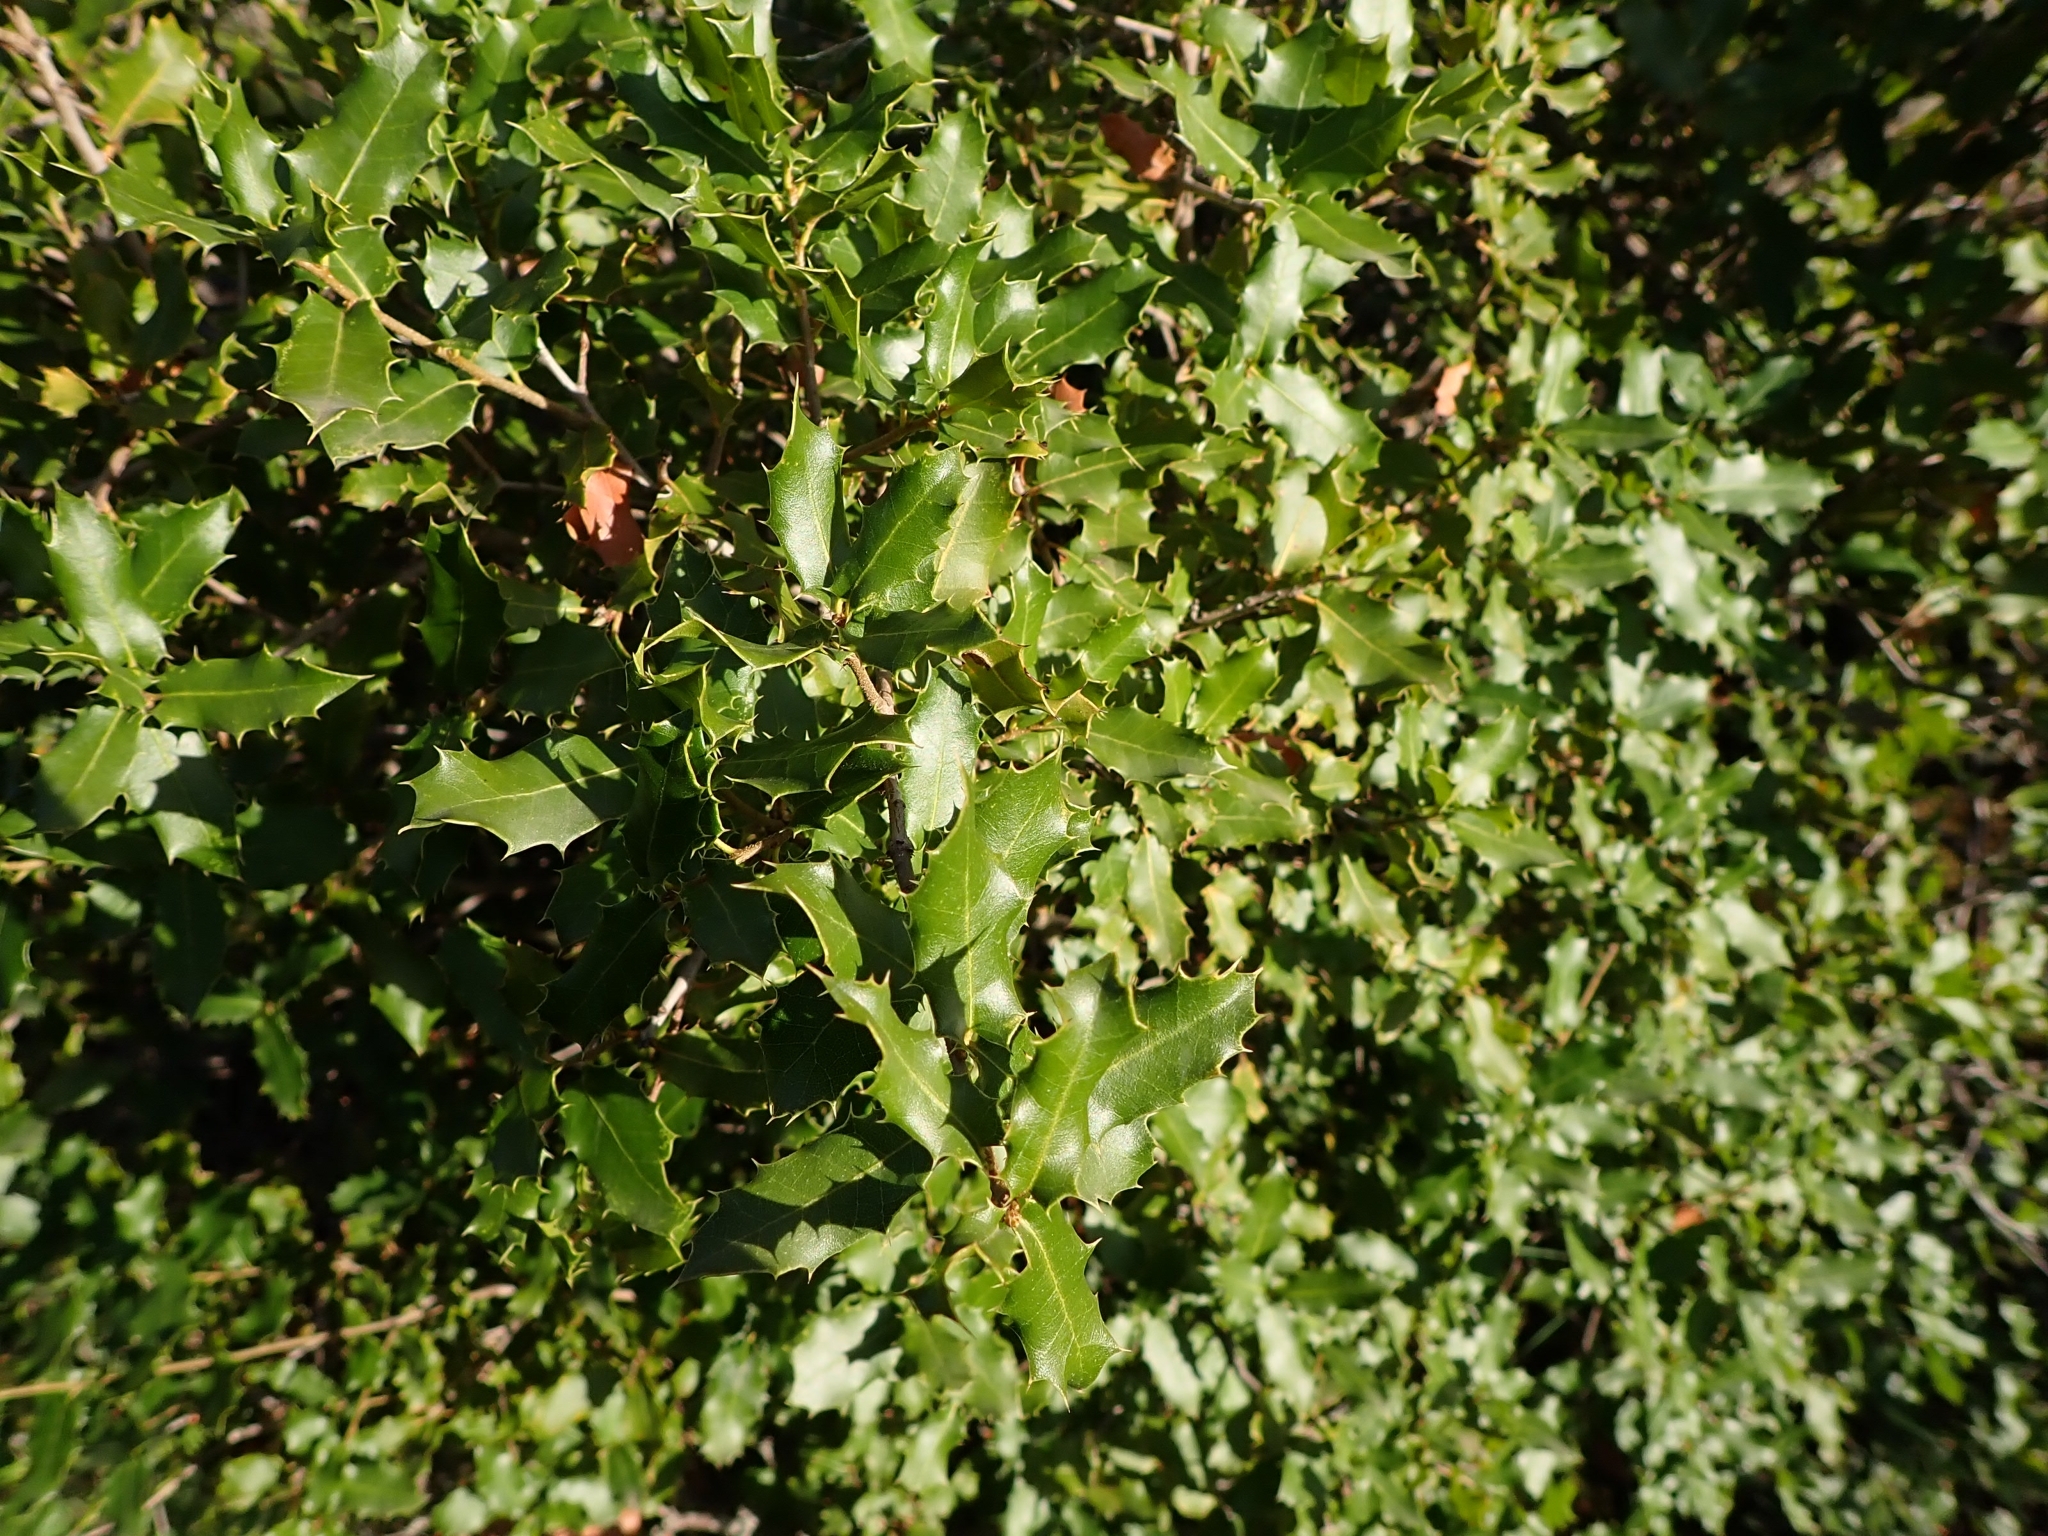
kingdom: Plantae
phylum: Tracheophyta
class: Magnoliopsida
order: Fagales
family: Fagaceae
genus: Quercus
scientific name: Quercus coccifera
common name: Kermes oak
